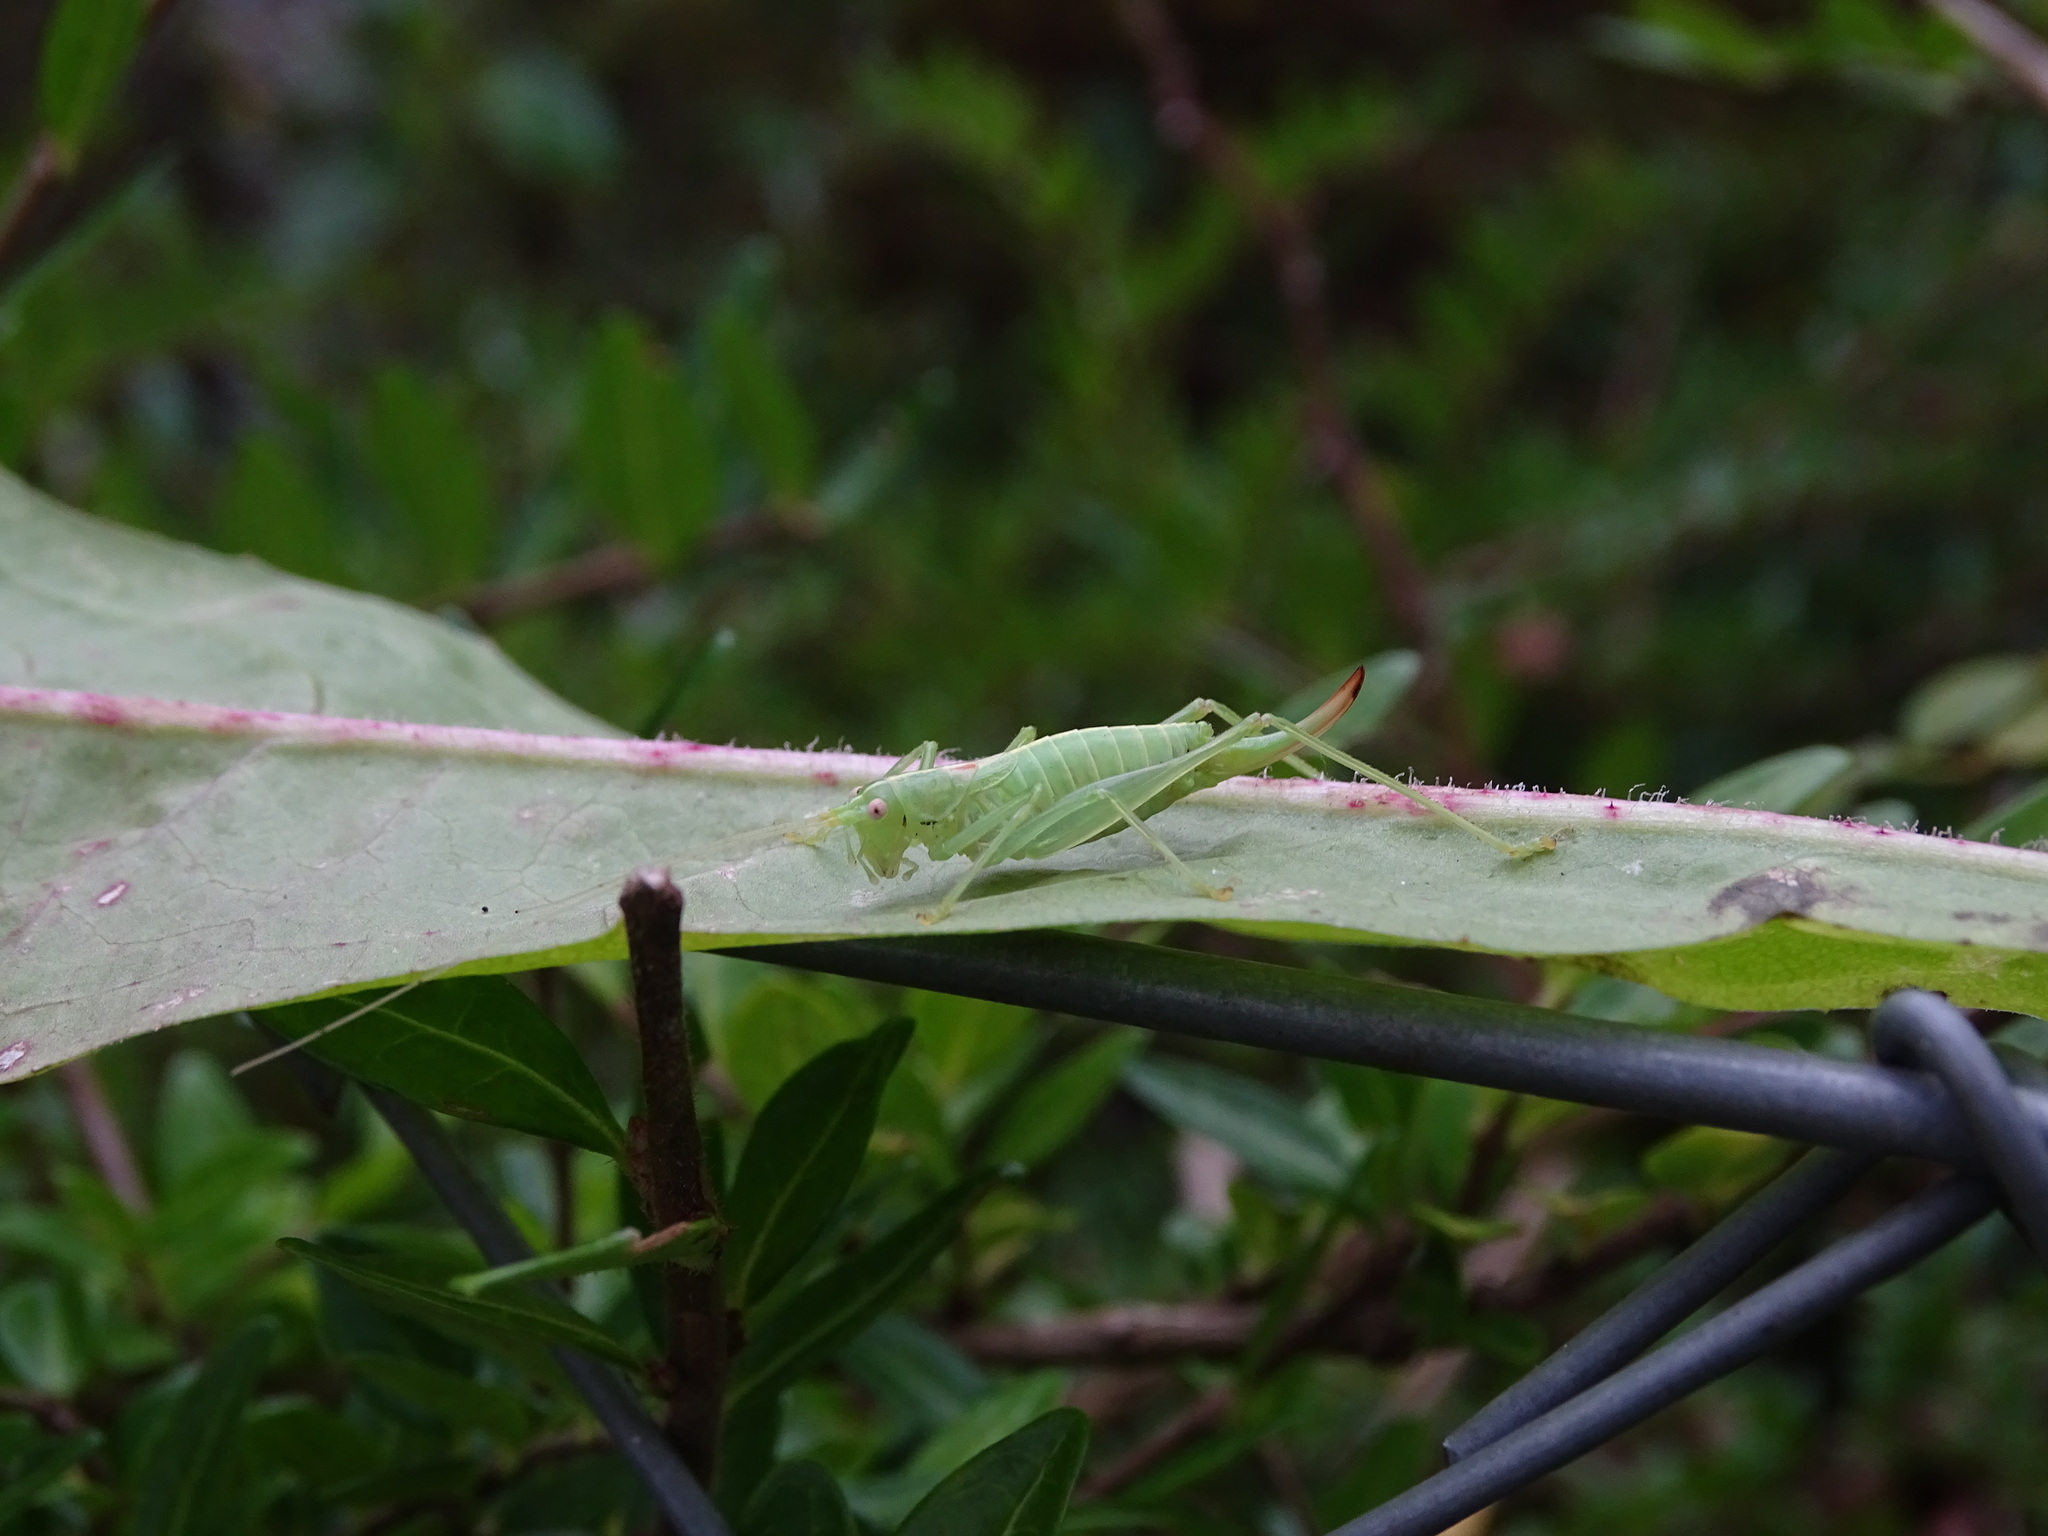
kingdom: Animalia
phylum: Arthropoda
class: Insecta
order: Orthoptera
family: Tettigoniidae
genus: Meconema
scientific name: Meconema meridionale
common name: Southern oak bush-cricket
